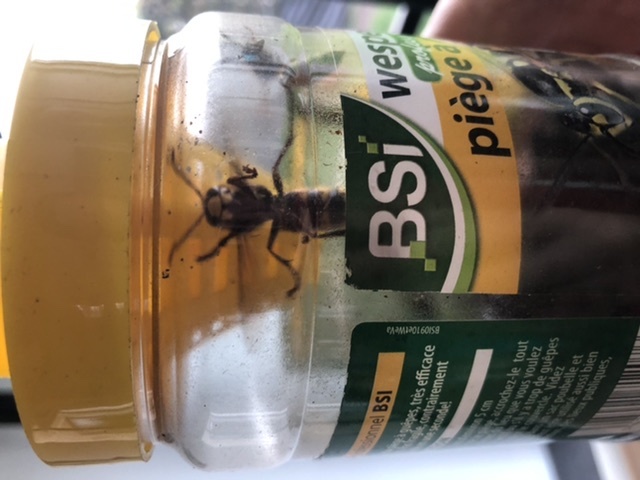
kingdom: Animalia
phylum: Arthropoda
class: Insecta
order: Hymenoptera
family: Vespidae
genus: Vespa
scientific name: Vespa crabro
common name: Hornet
